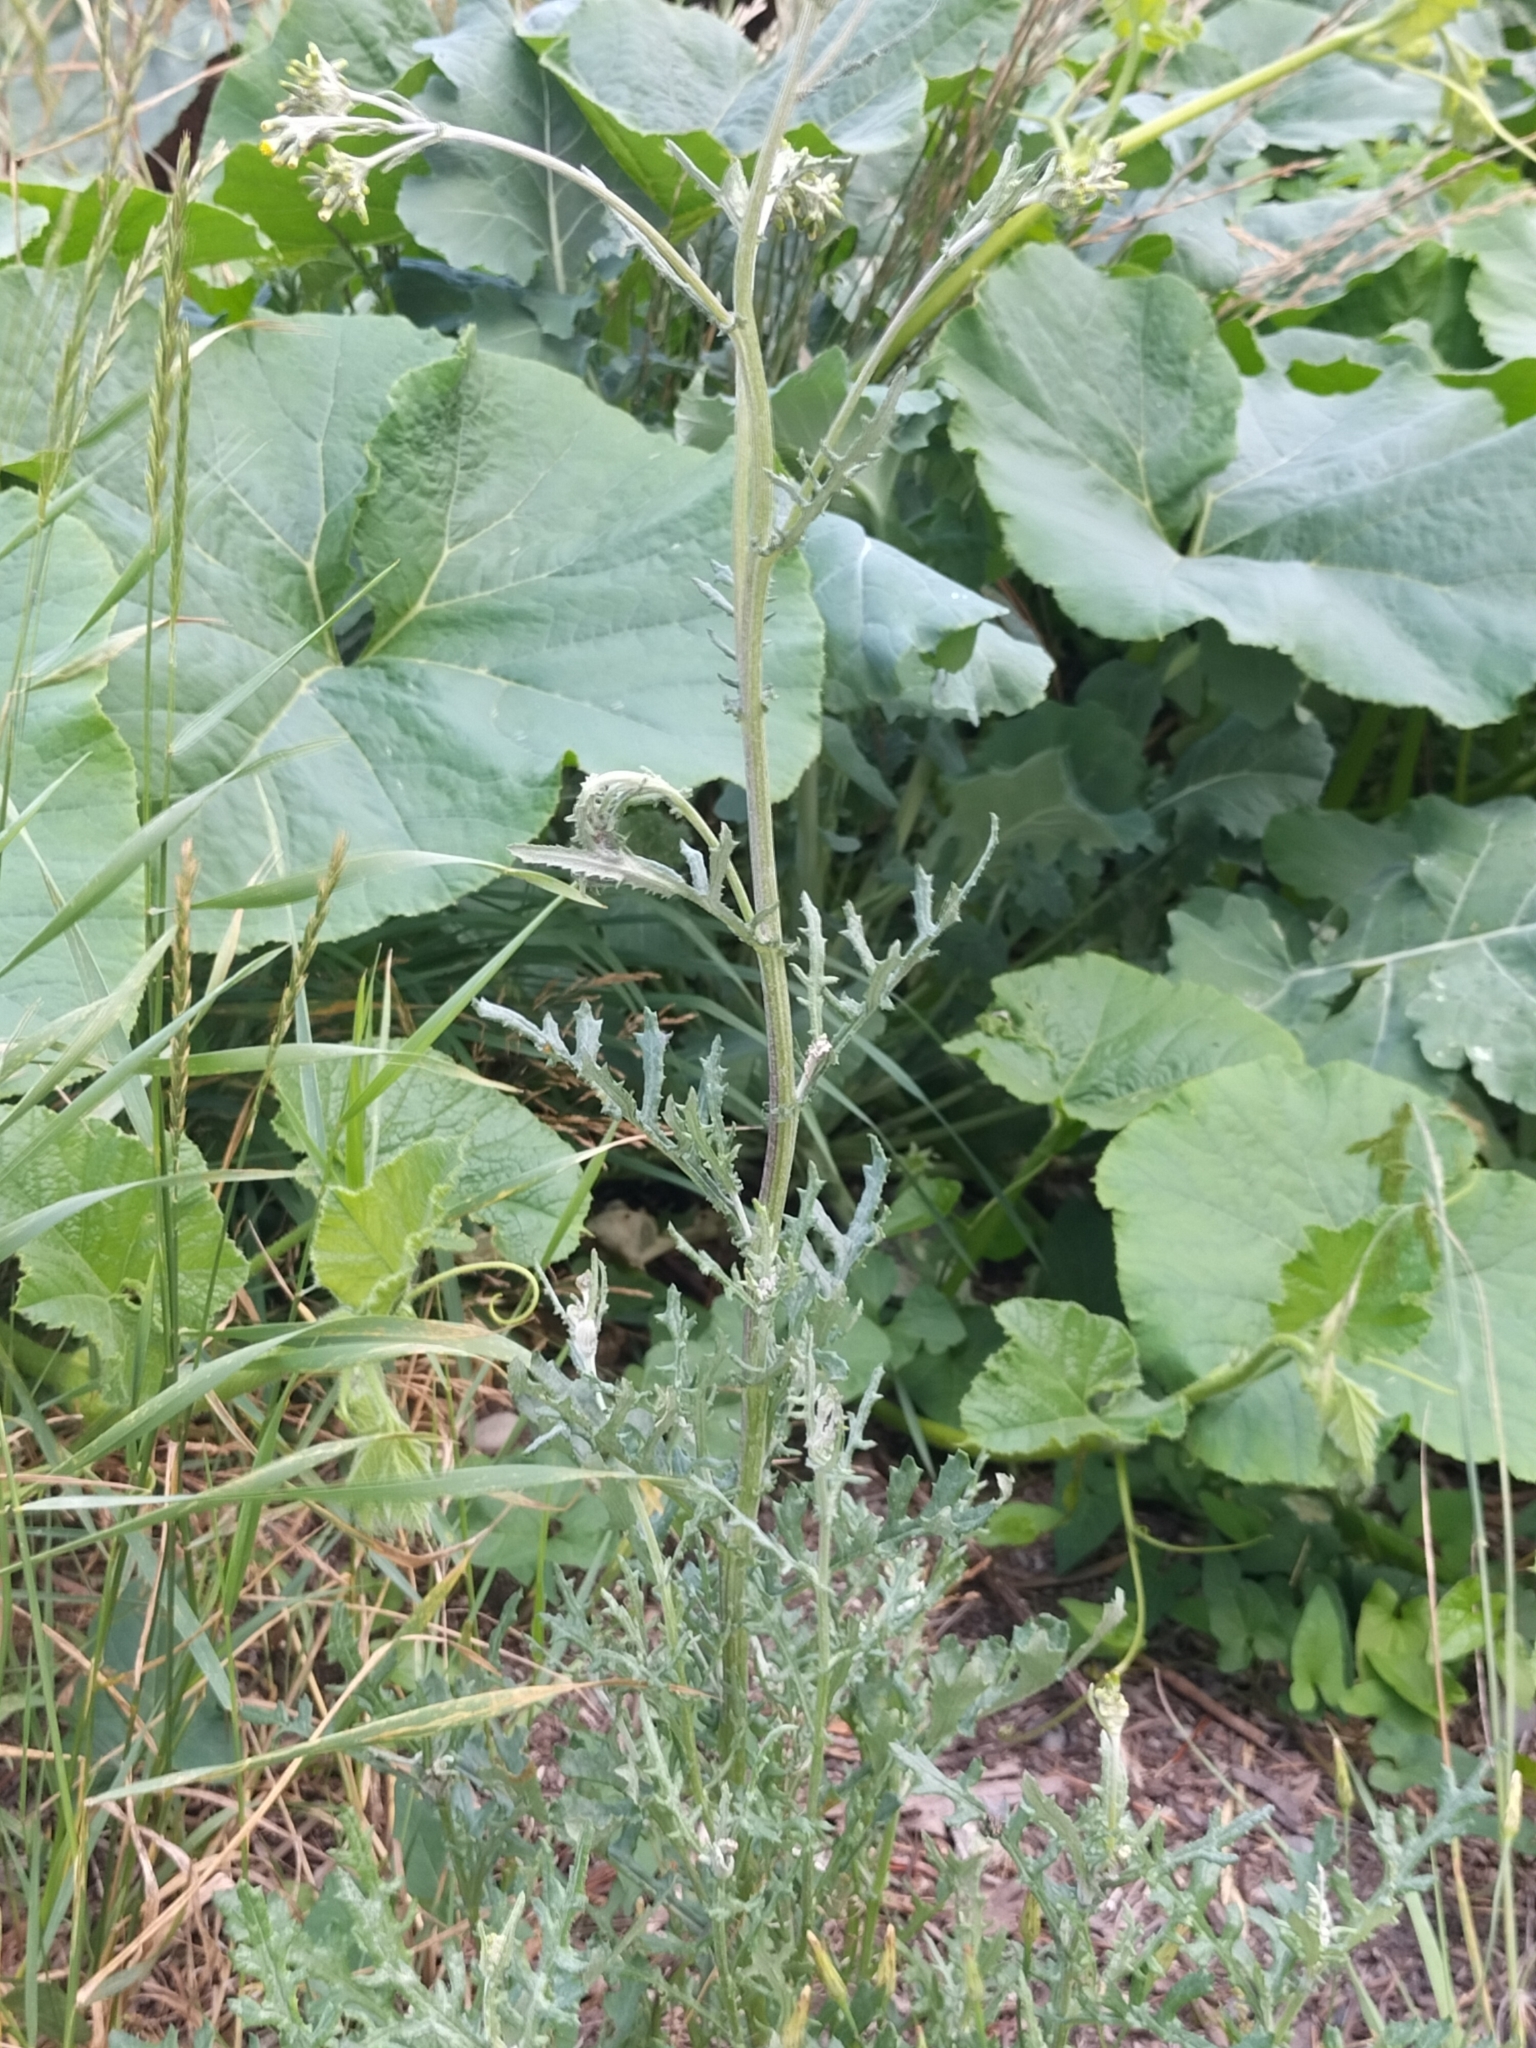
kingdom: Plantae
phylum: Tracheophyta
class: Magnoliopsida
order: Asterales
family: Asteraceae
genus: Senecio
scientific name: Senecio glomeratus
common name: Cutleaf burnweed
